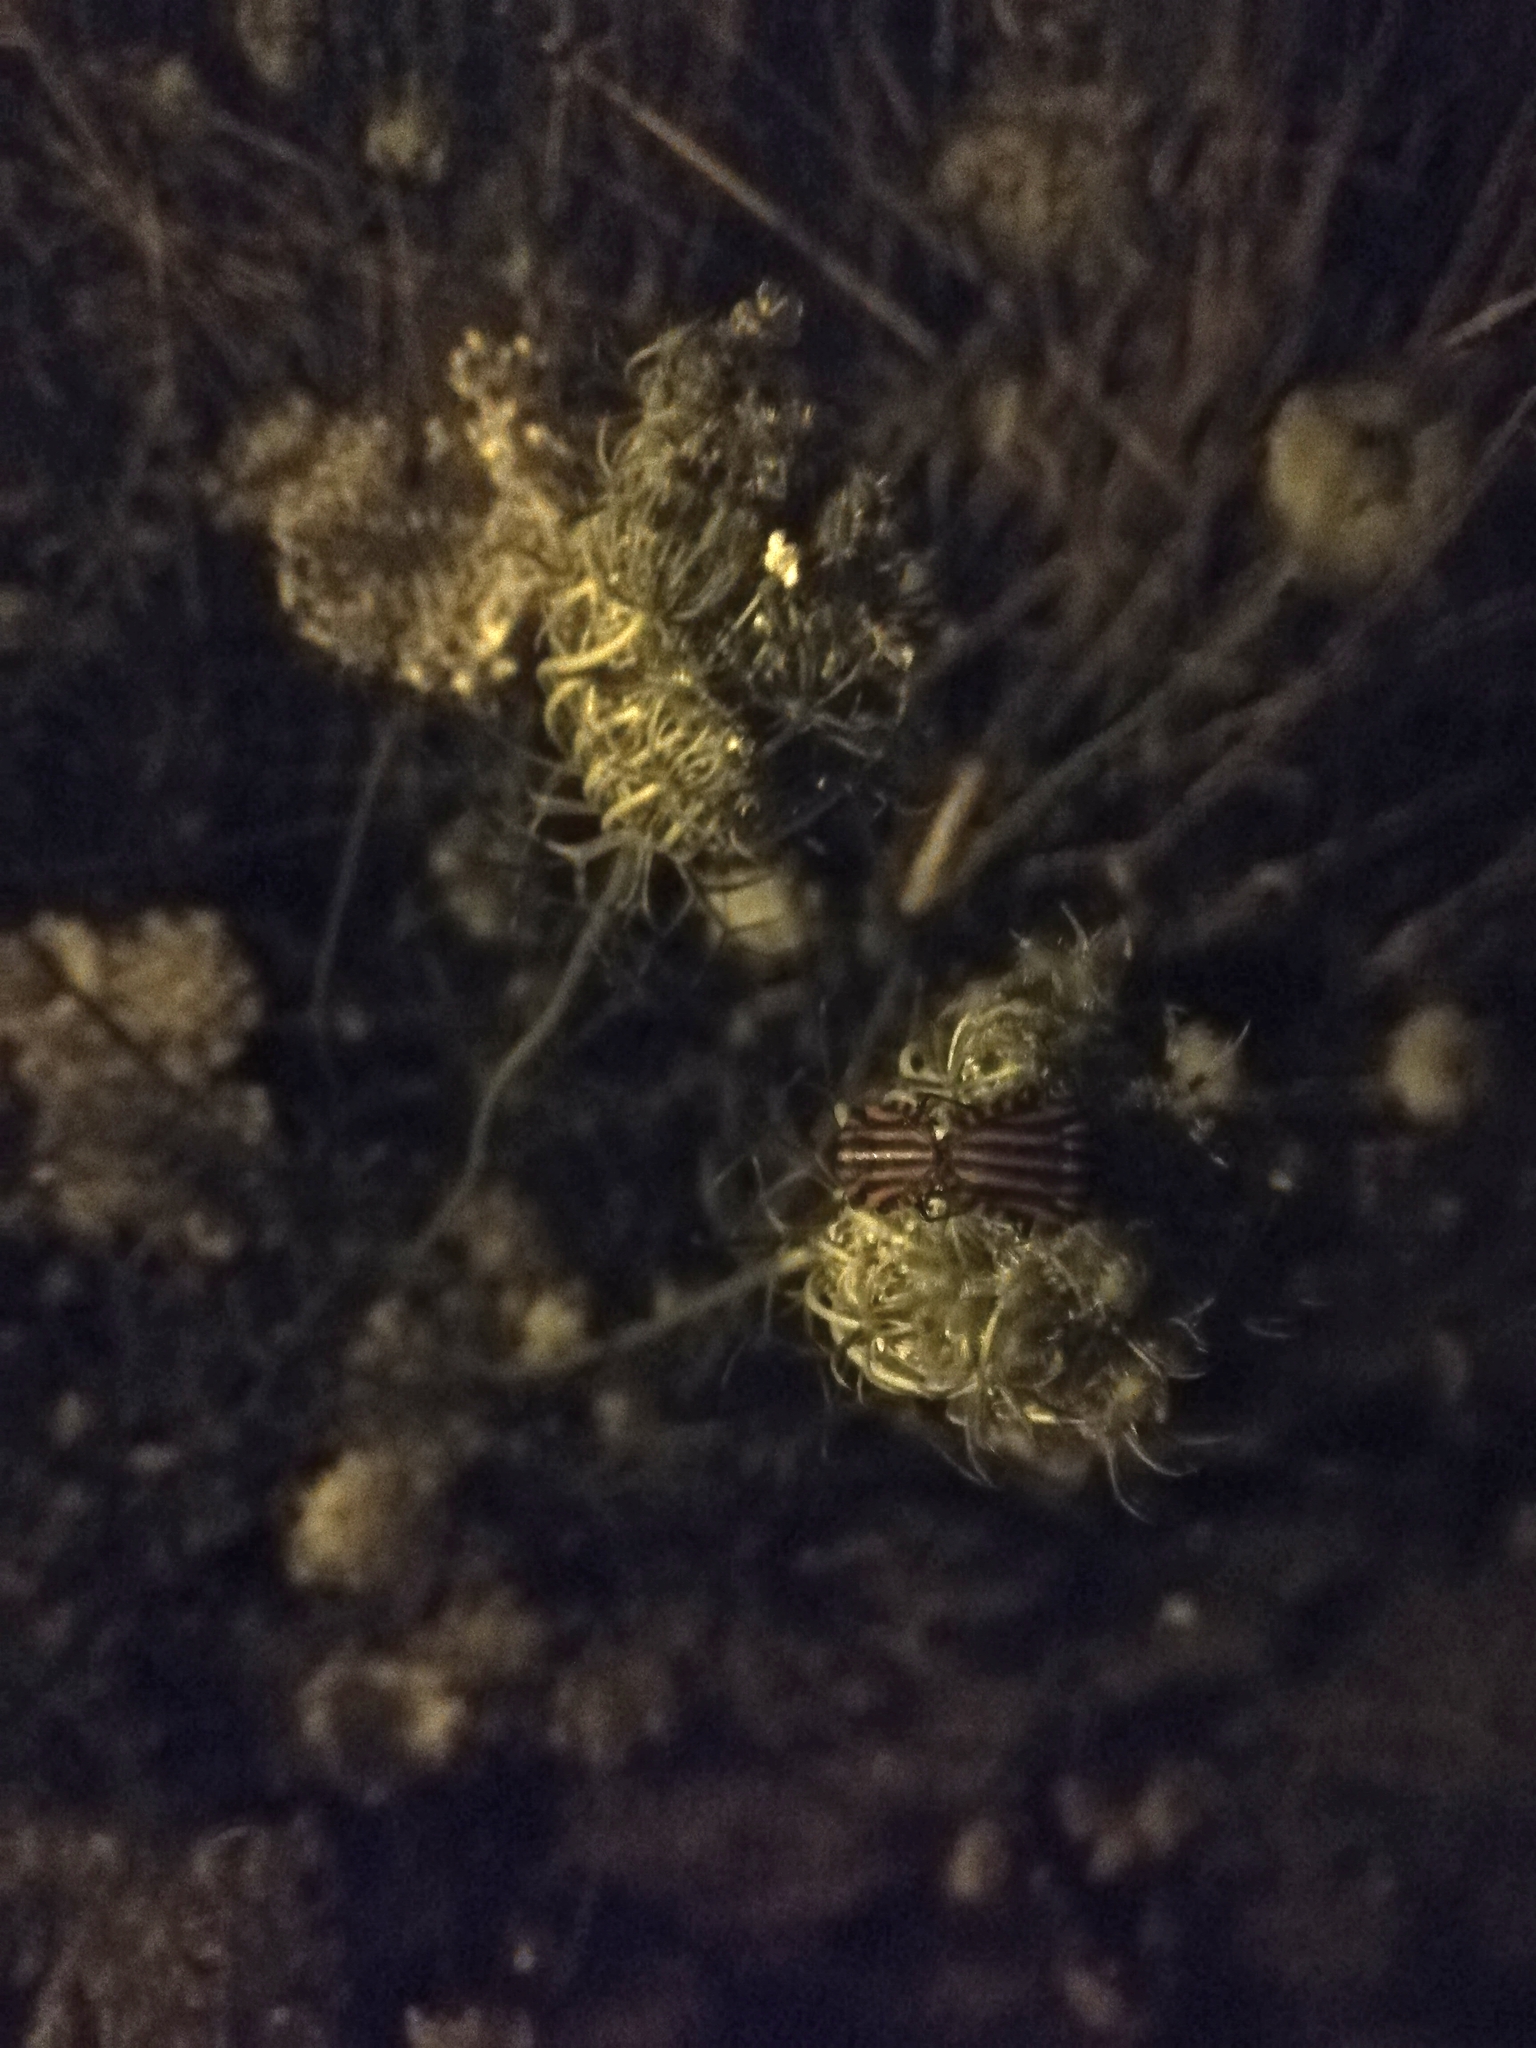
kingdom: Animalia
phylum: Arthropoda
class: Insecta
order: Hemiptera
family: Pentatomidae
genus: Graphosoma
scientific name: Graphosoma italicum
